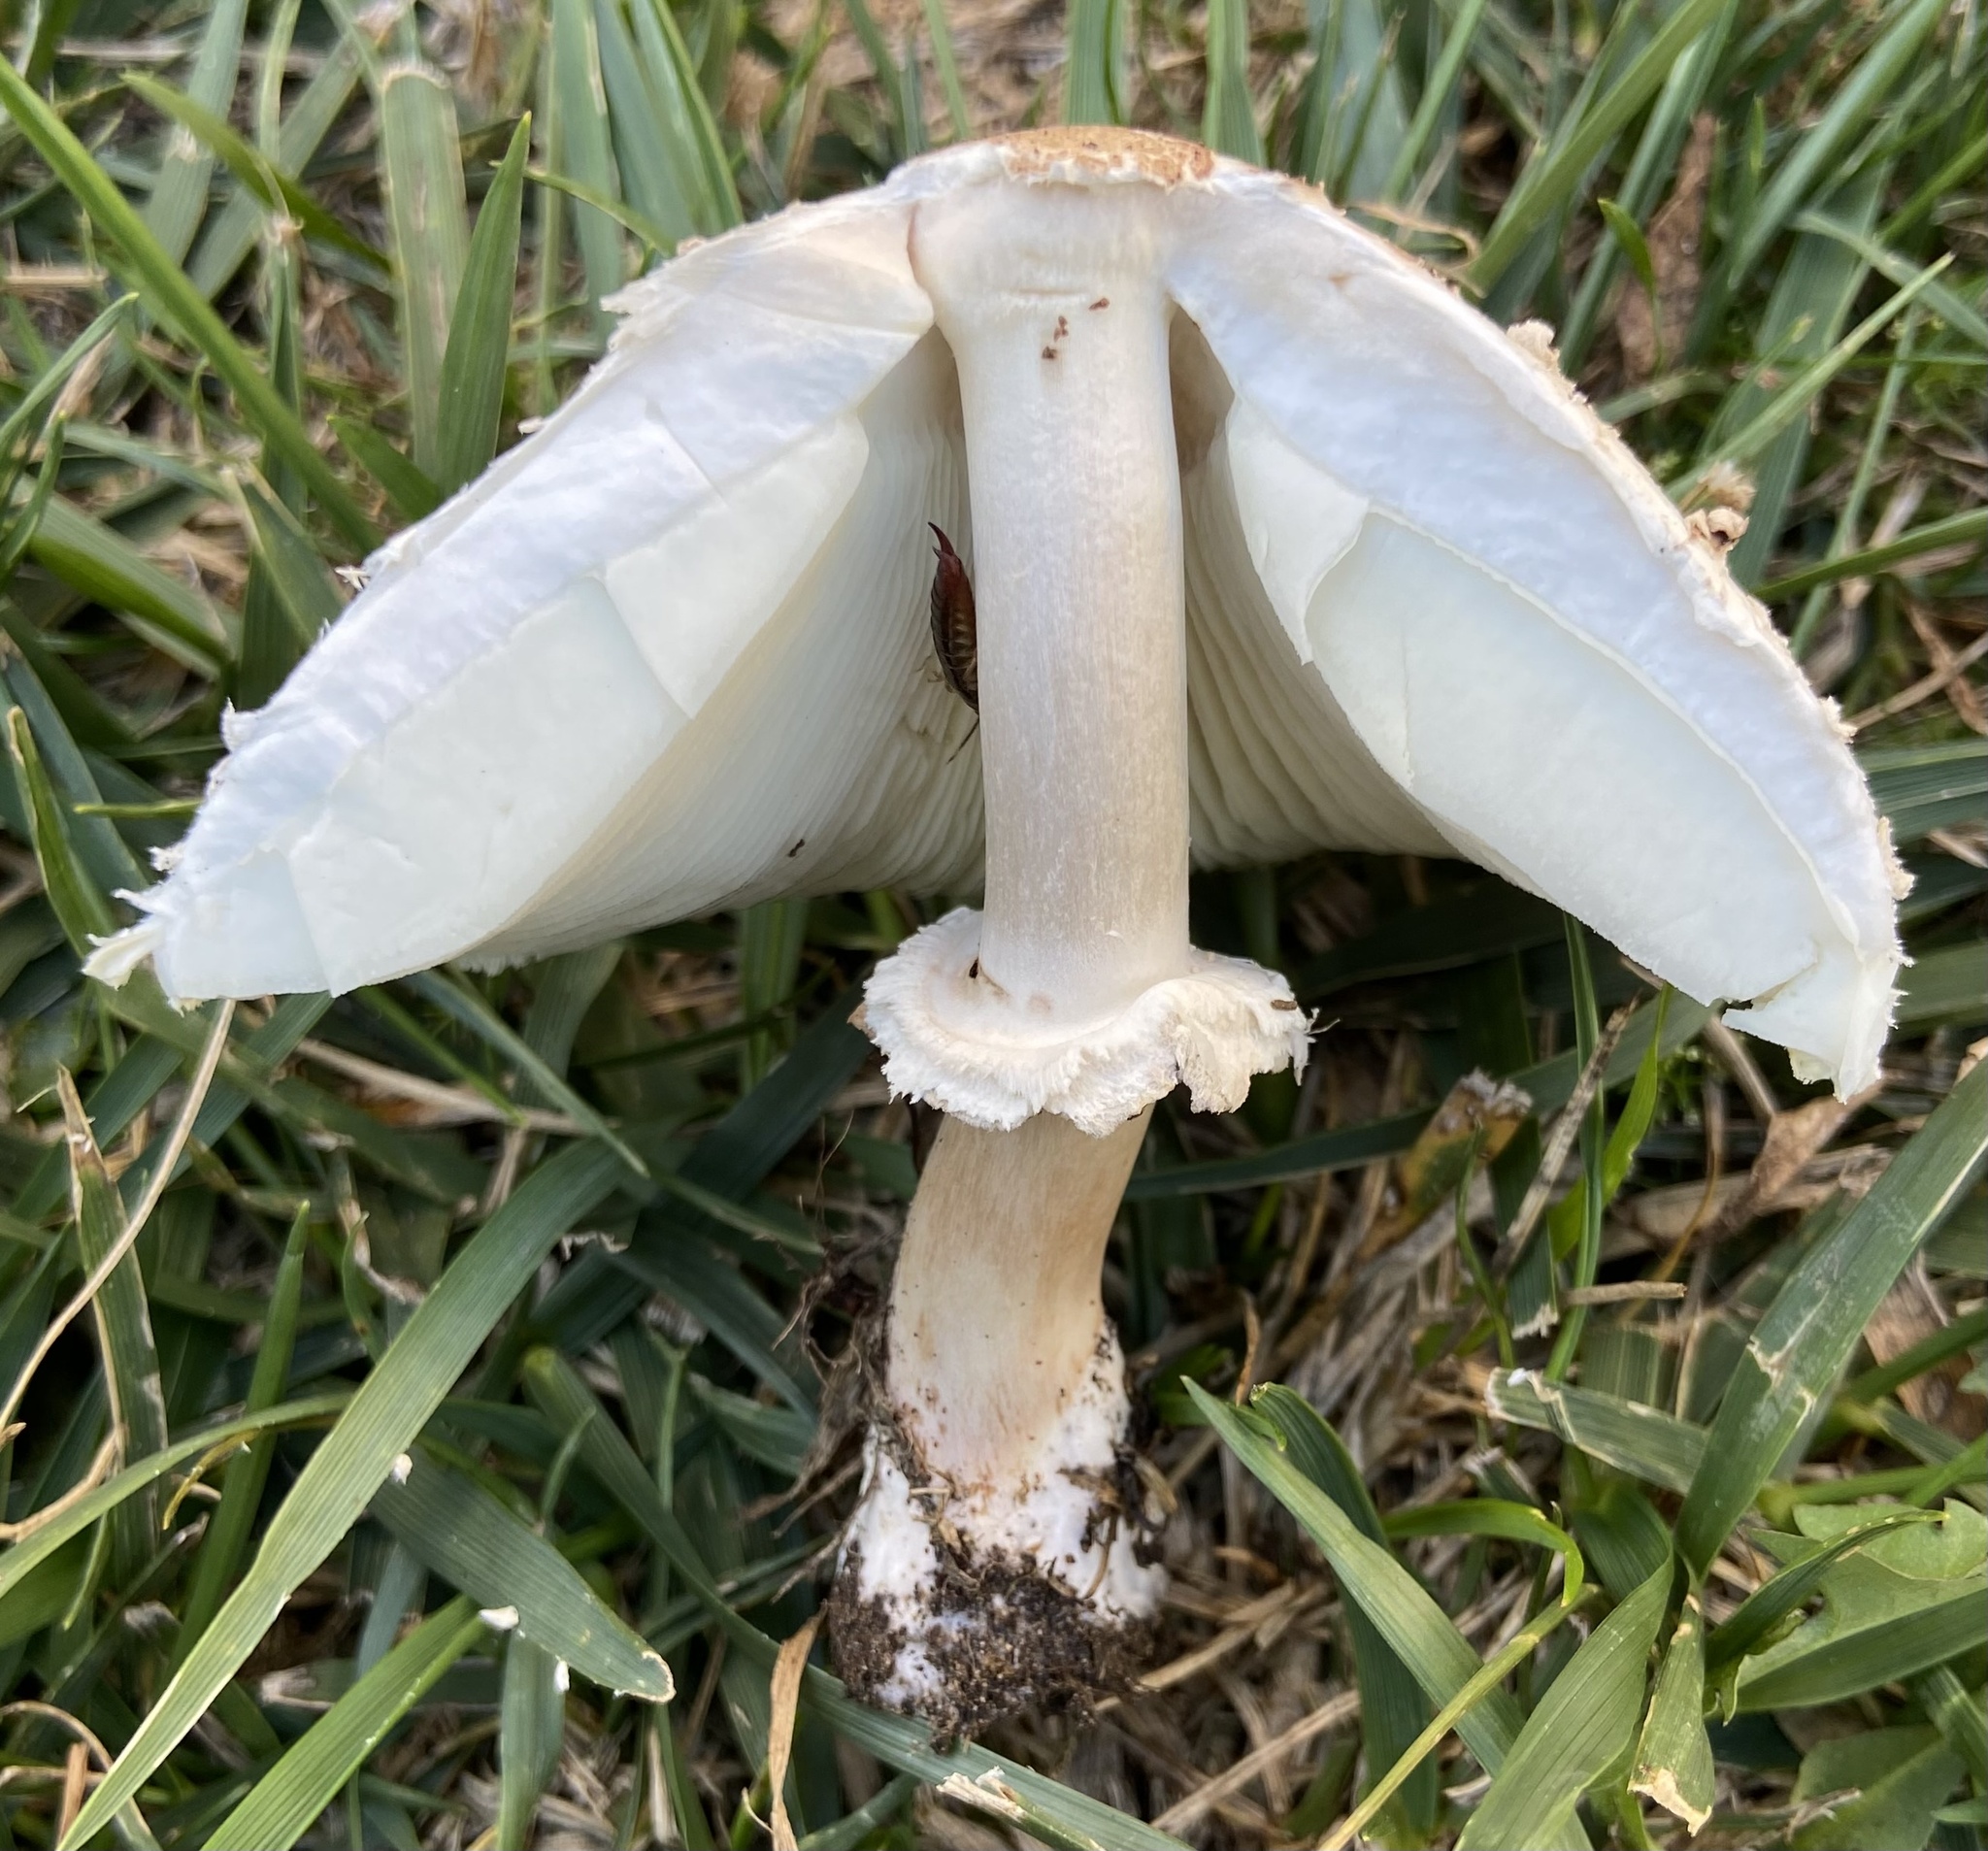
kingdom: Fungi
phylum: Basidiomycota
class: Agaricomycetes
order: Agaricales
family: Agaricaceae
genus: Chlorophyllum
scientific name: Chlorophyllum molybdites
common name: False parasol
